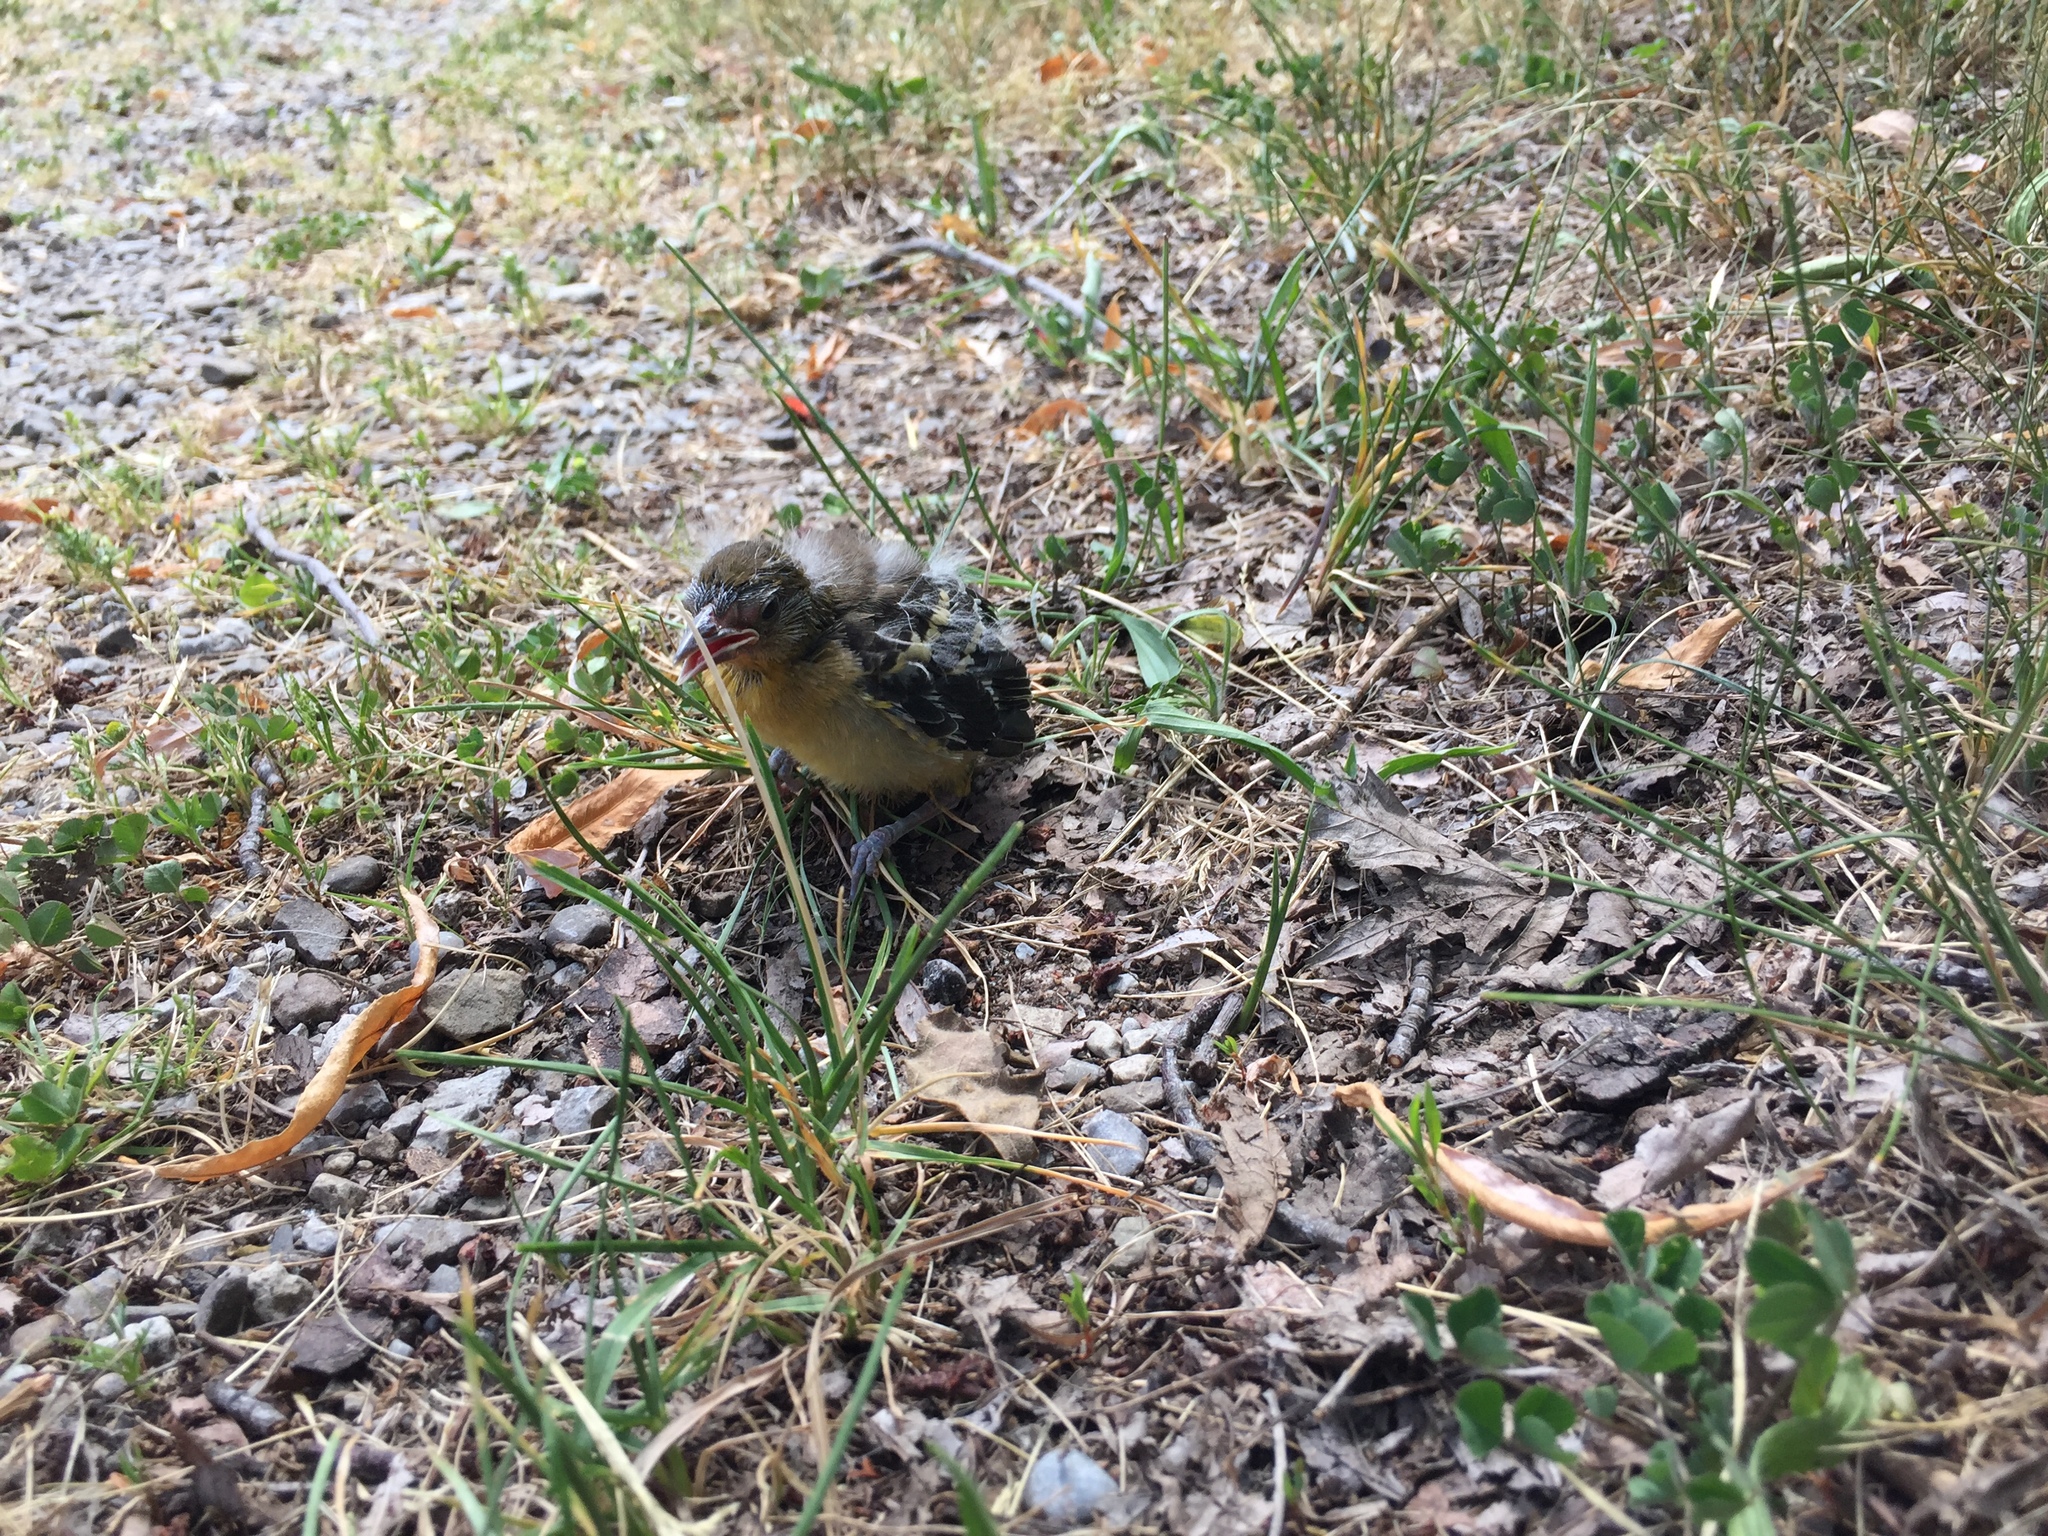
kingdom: Animalia
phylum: Chordata
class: Aves
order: Passeriformes
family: Icteridae
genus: Icterus
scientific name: Icterus galbula
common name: Baltimore oriole
